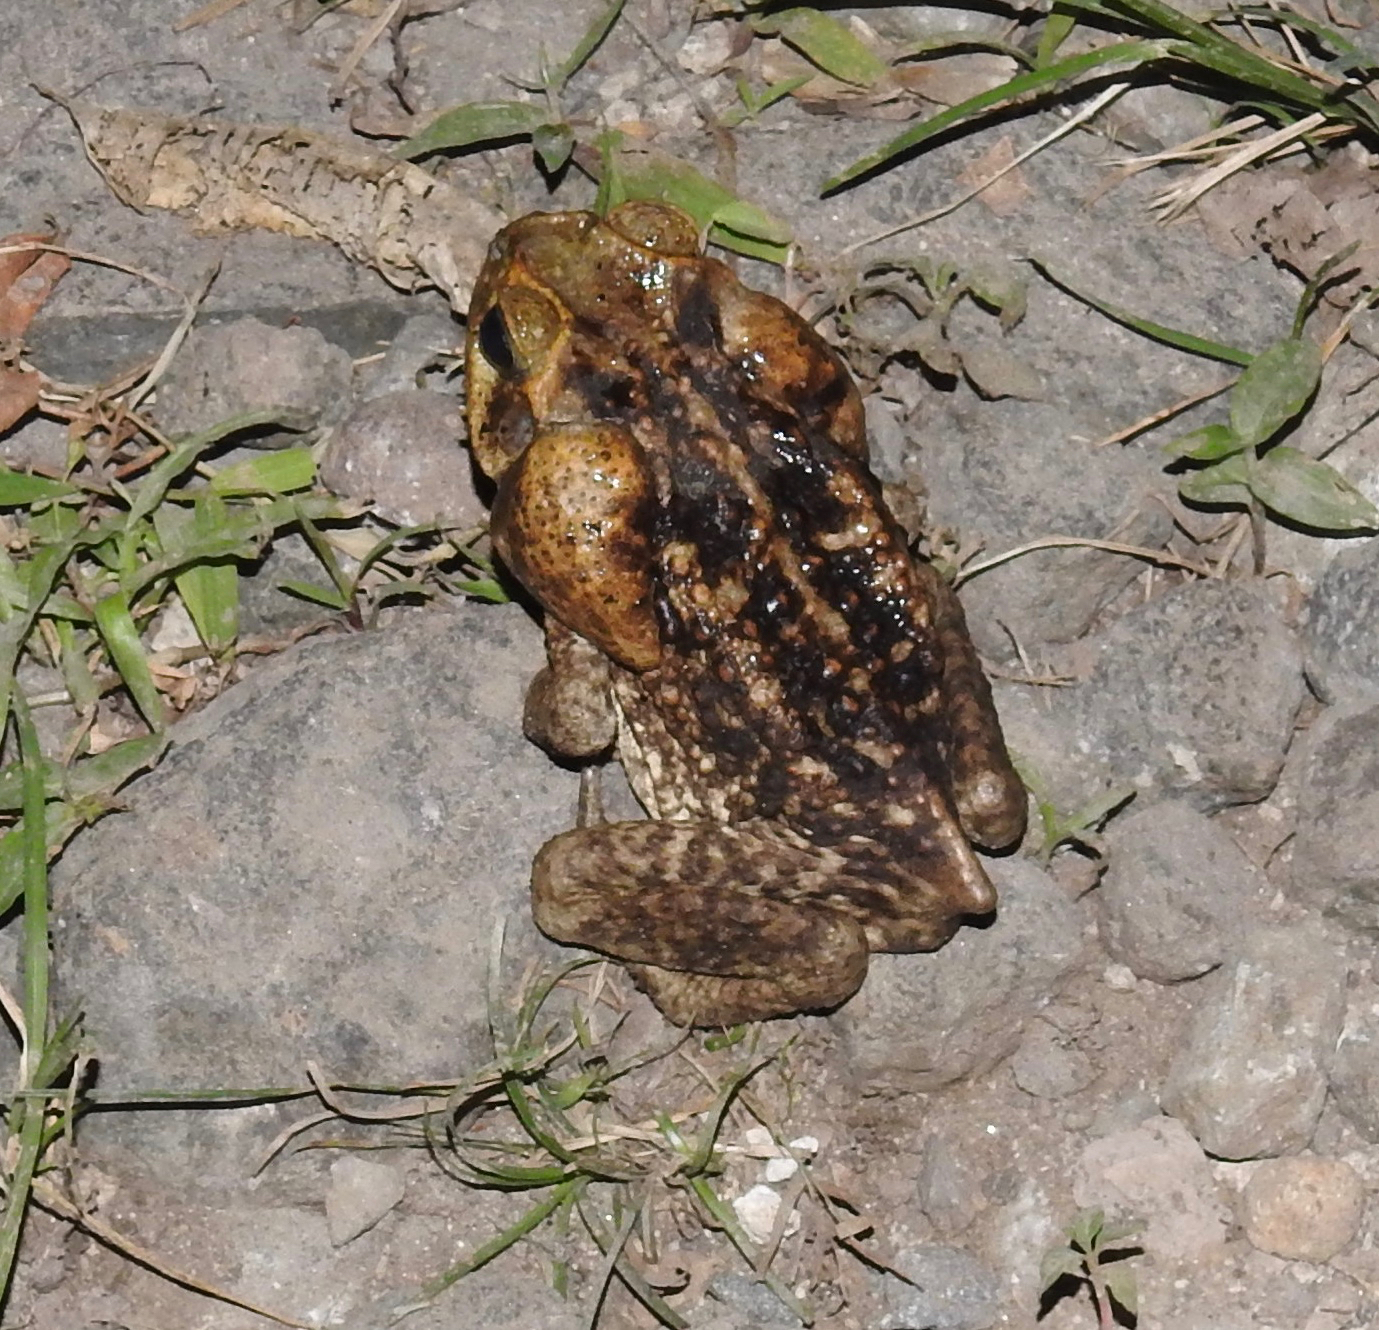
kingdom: Animalia
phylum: Chordata
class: Amphibia
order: Anura
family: Bufonidae
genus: Rhinella
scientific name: Rhinella horribilis
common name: Mesoamerican cane toad
